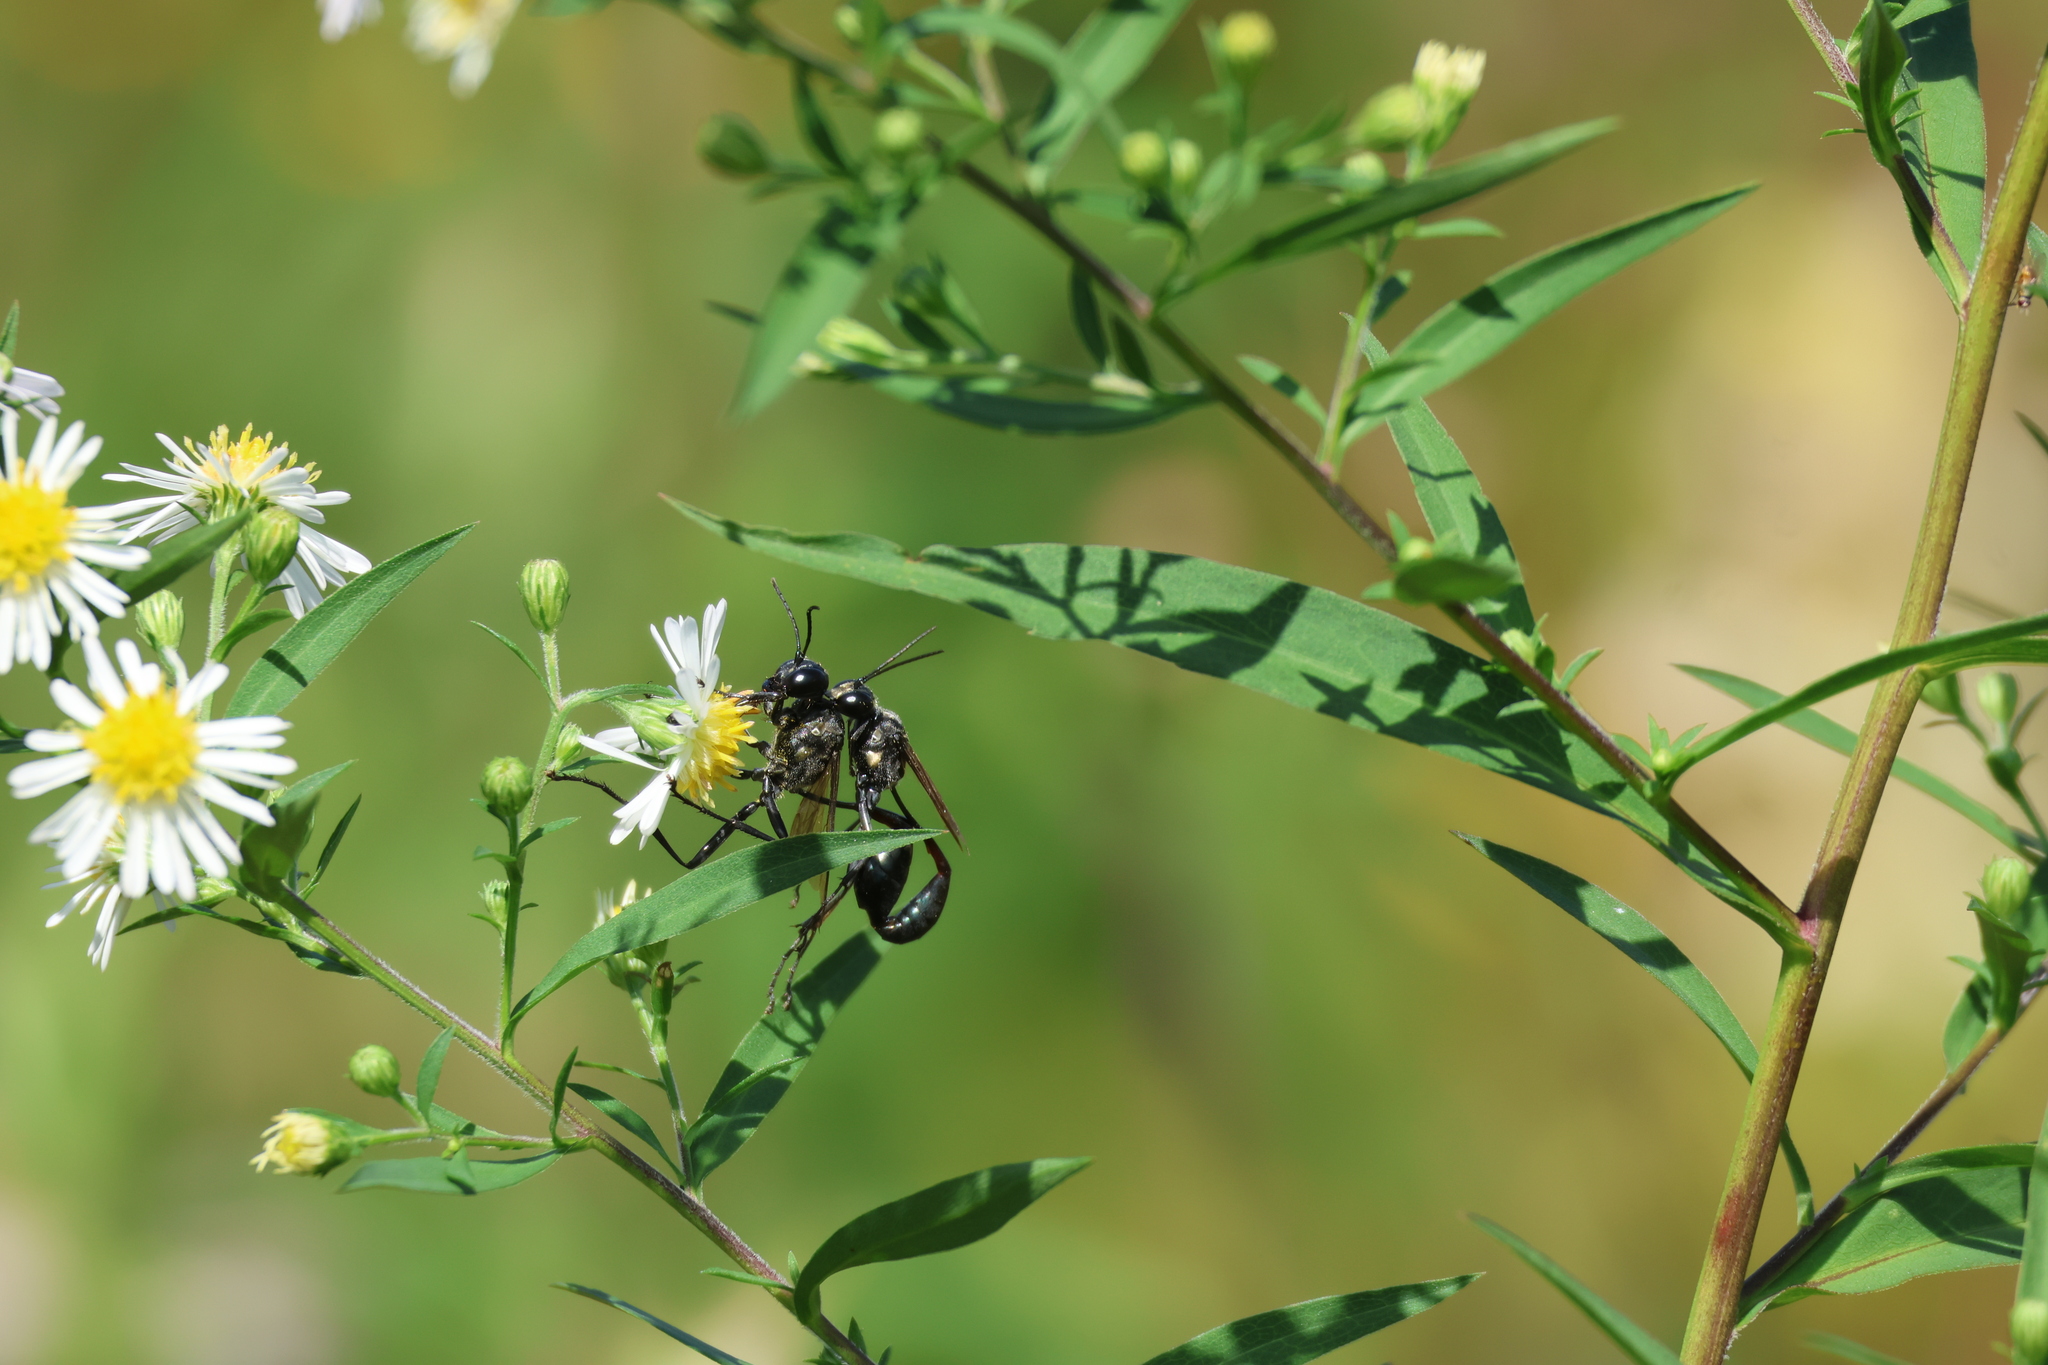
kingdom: Animalia
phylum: Arthropoda
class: Insecta
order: Hymenoptera
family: Sphecidae
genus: Eremnophila
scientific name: Eremnophila aureonotata
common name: Gold-marked thread-waisted wasp
